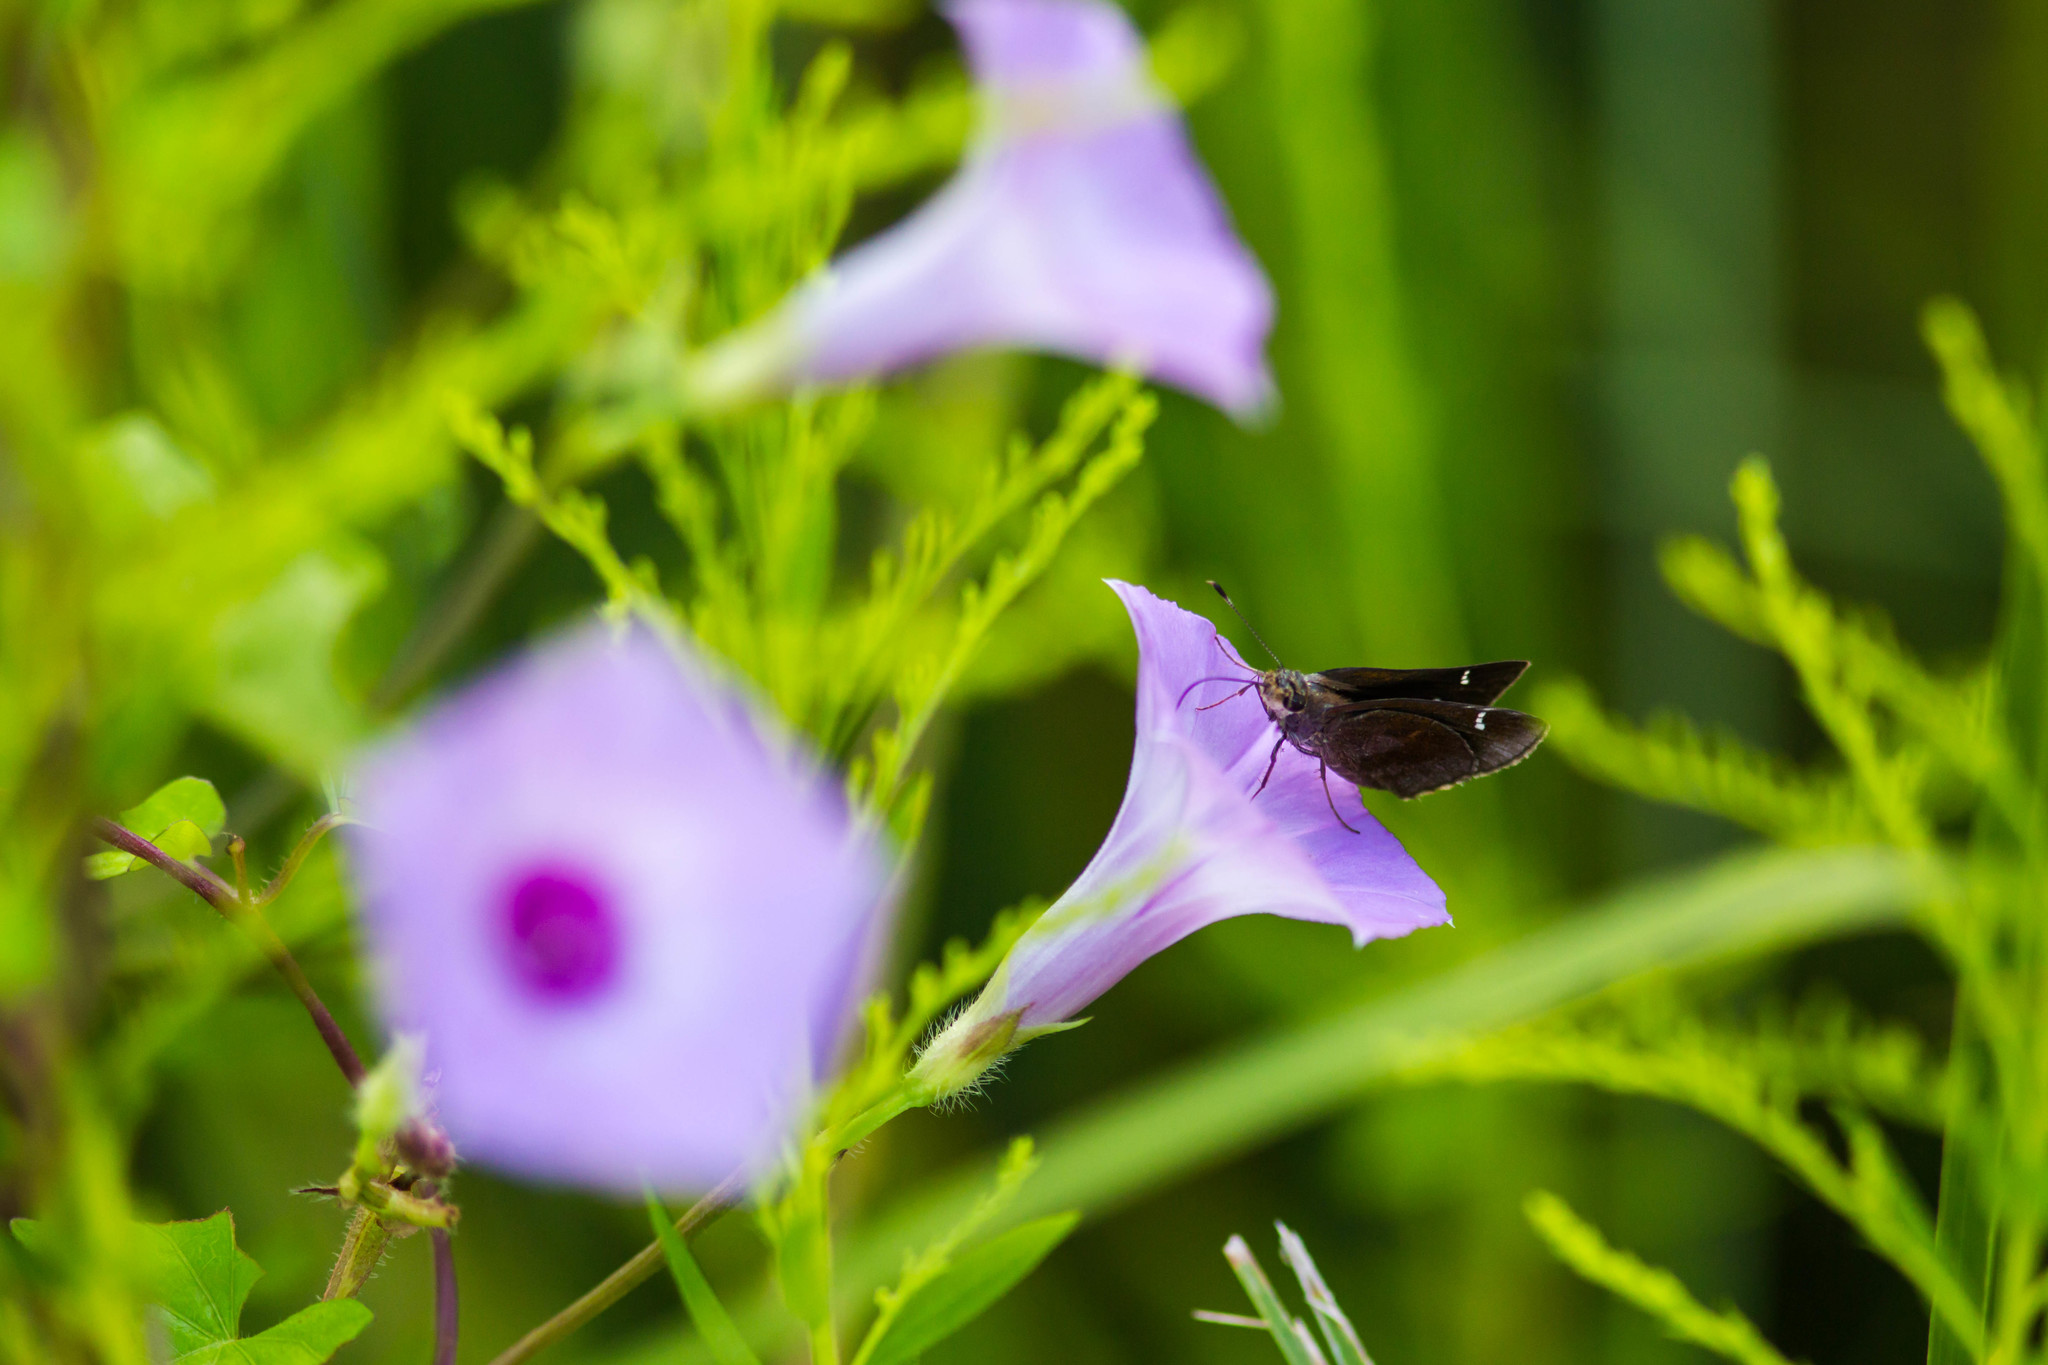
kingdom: Animalia
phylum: Arthropoda
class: Insecta
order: Lepidoptera
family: Hesperiidae
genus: Lerema
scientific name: Lerema accius
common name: Clouded skipper
